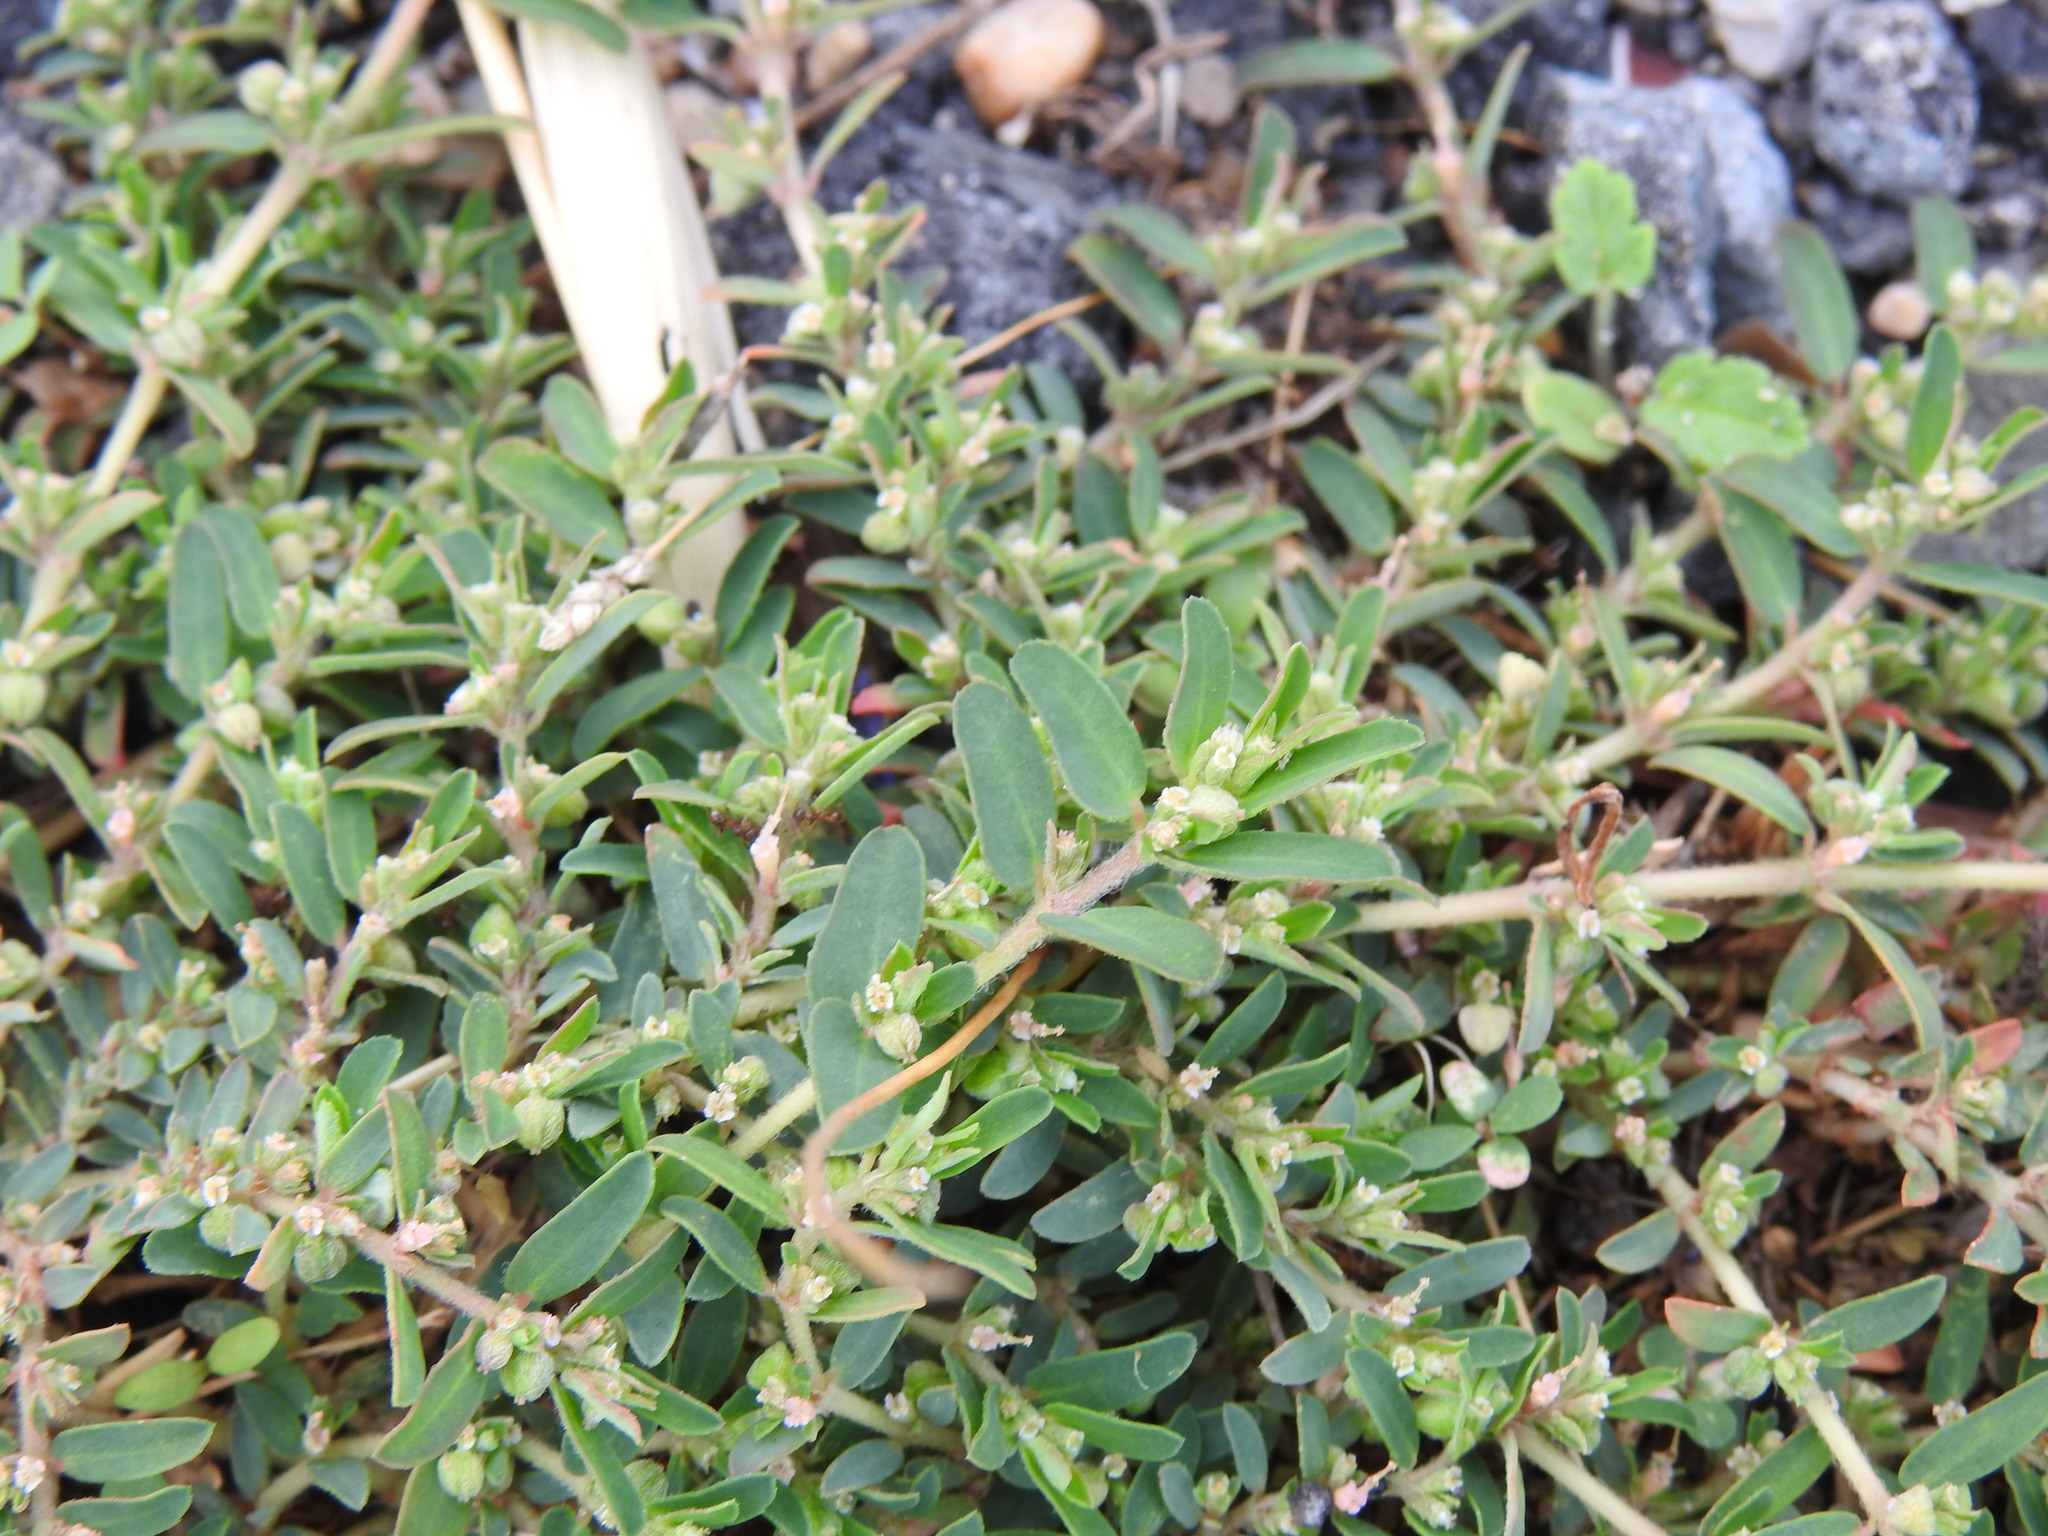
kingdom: Plantae
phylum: Tracheophyta
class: Magnoliopsida
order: Malpighiales
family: Euphorbiaceae
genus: Euphorbia
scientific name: Euphorbia maculata
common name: Spotted spurge
